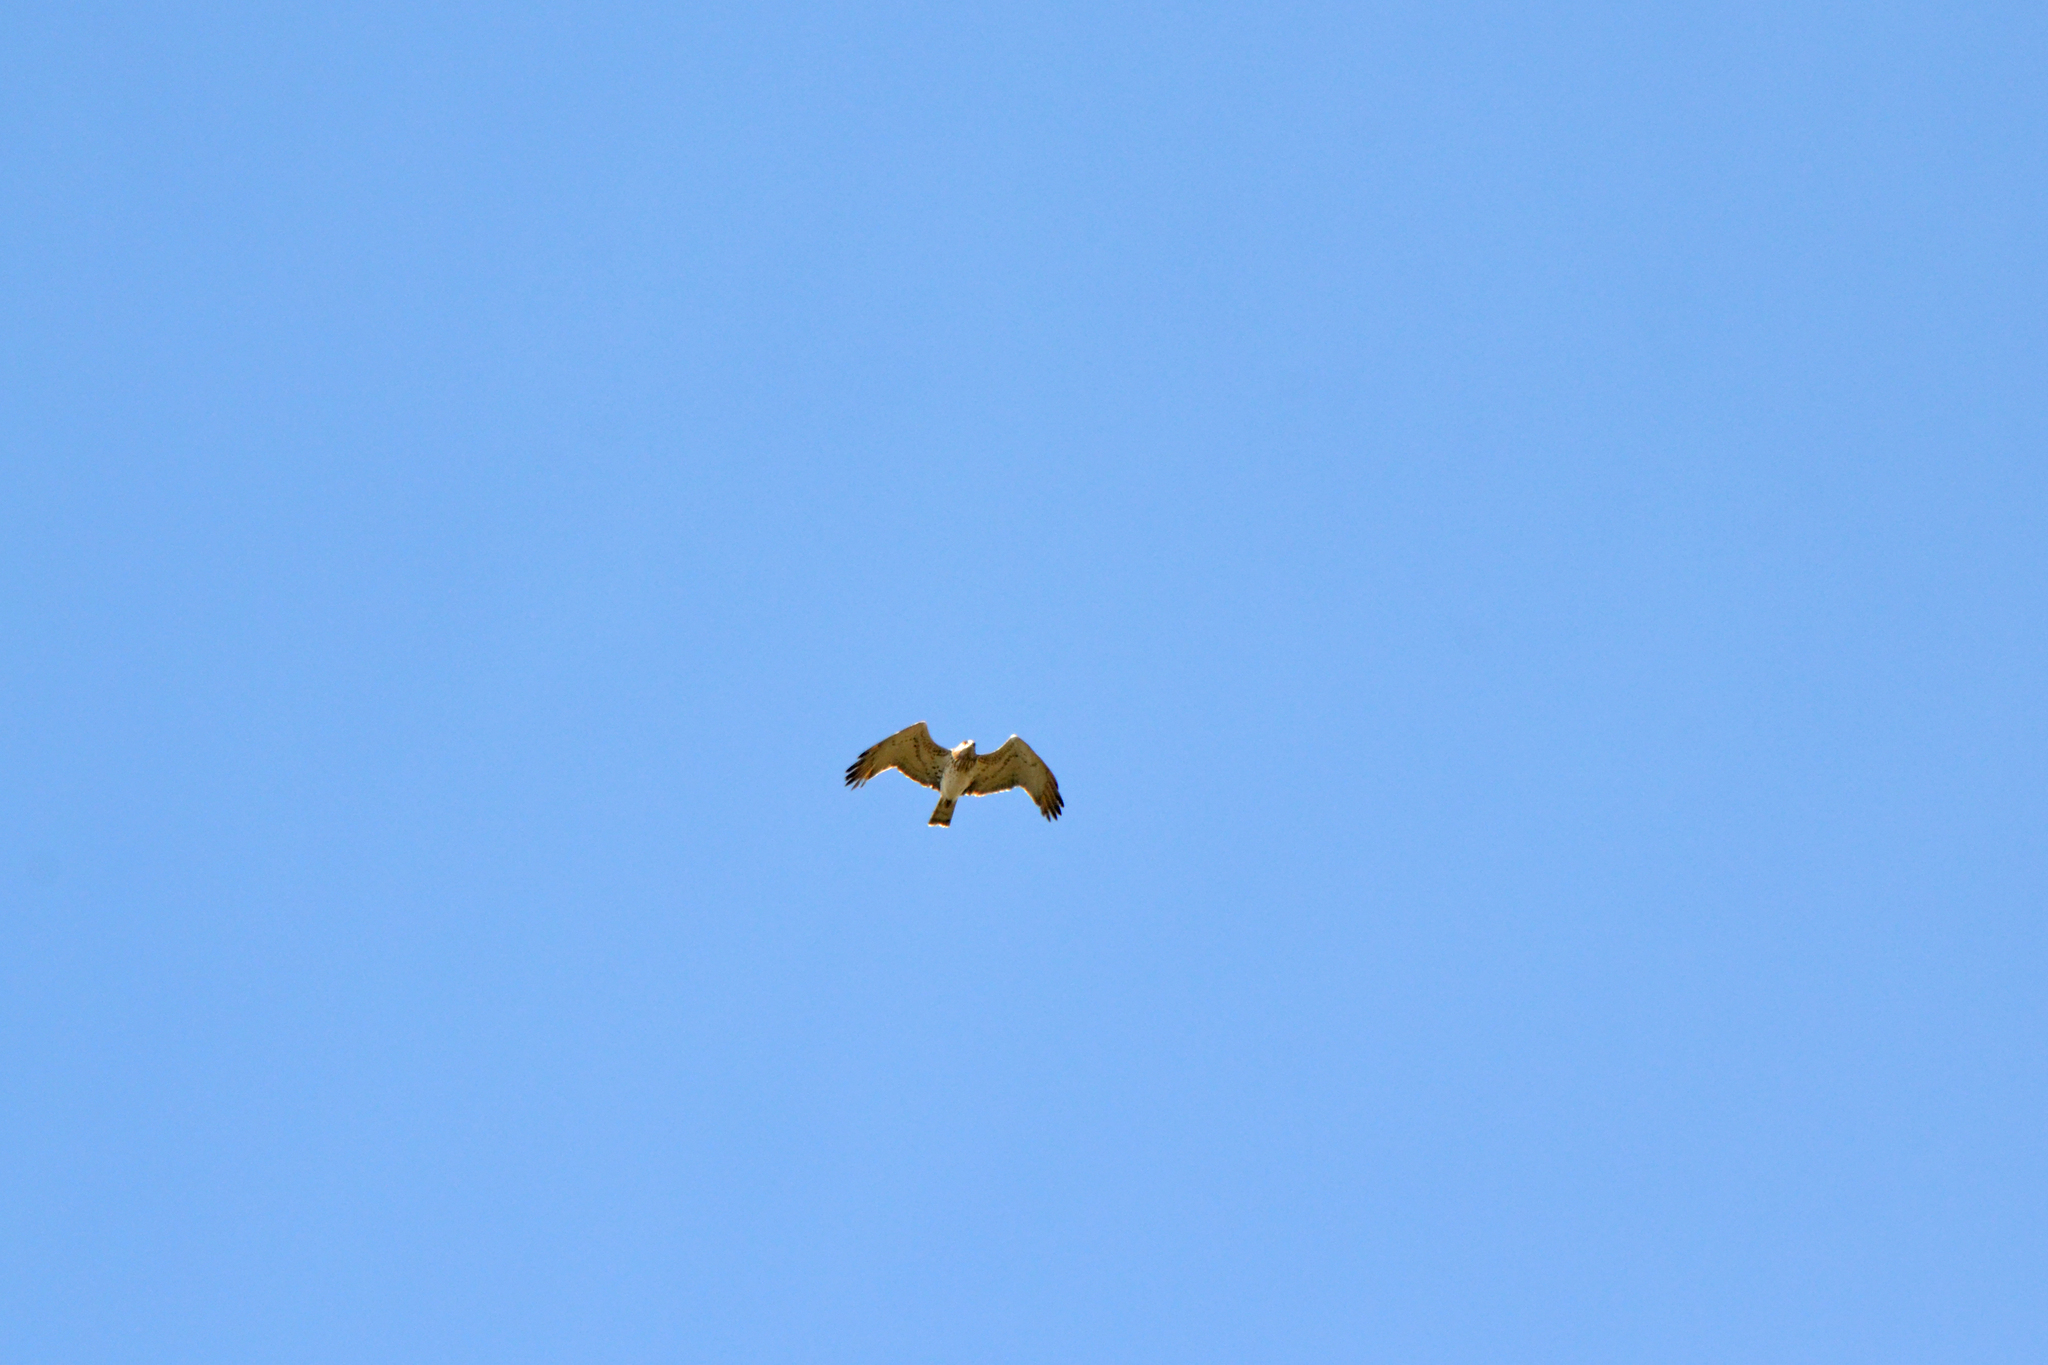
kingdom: Animalia
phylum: Chordata
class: Aves
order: Accipitriformes
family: Accipitridae
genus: Circaetus
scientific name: Circaetus gallicus
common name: Short-toed snake eagle
